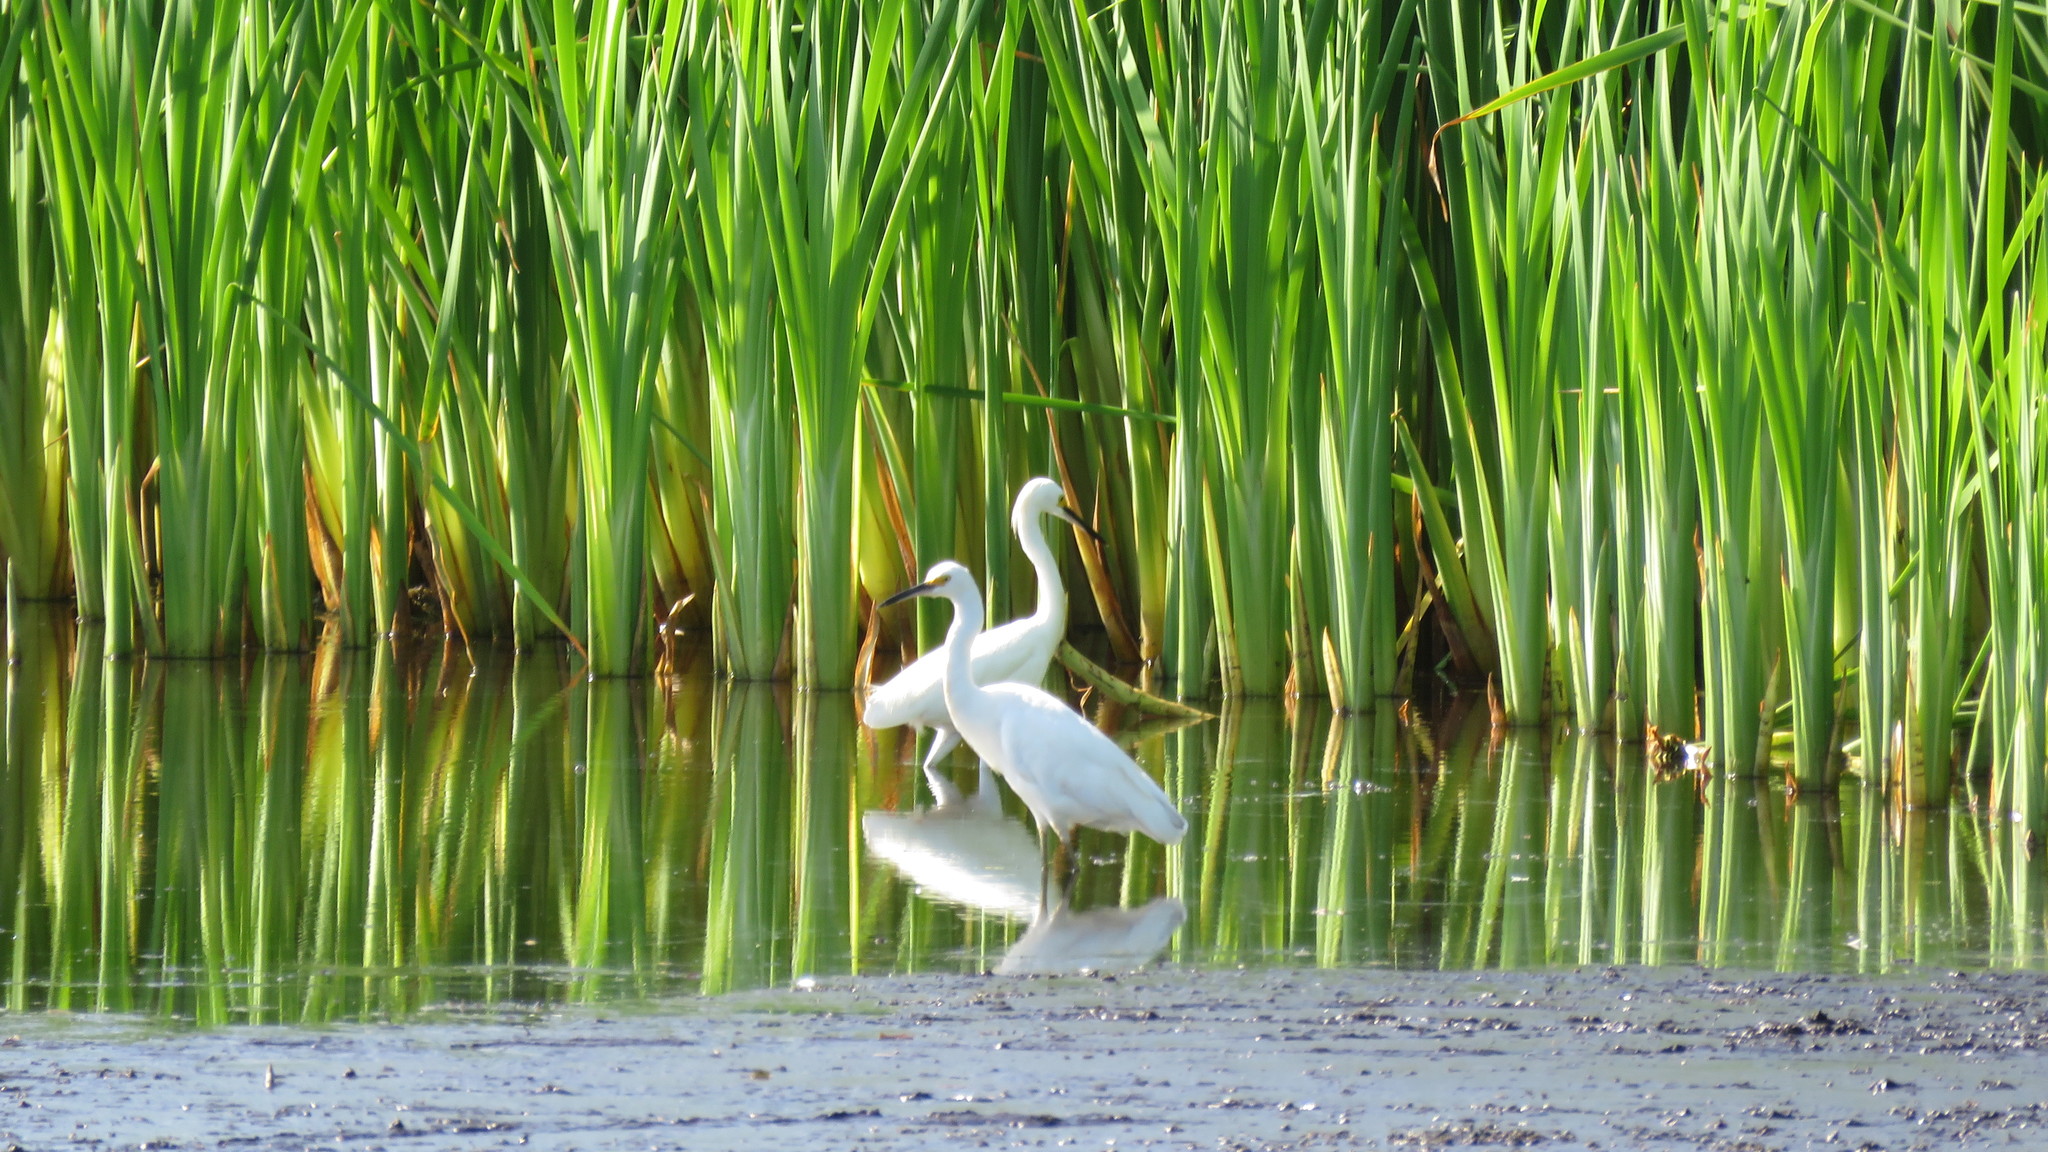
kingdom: Animalia
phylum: Chordata
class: Aves
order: Pelecaniformes
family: Ardeidae
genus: Egretta
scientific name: Egretta thula
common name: Snowy egret
